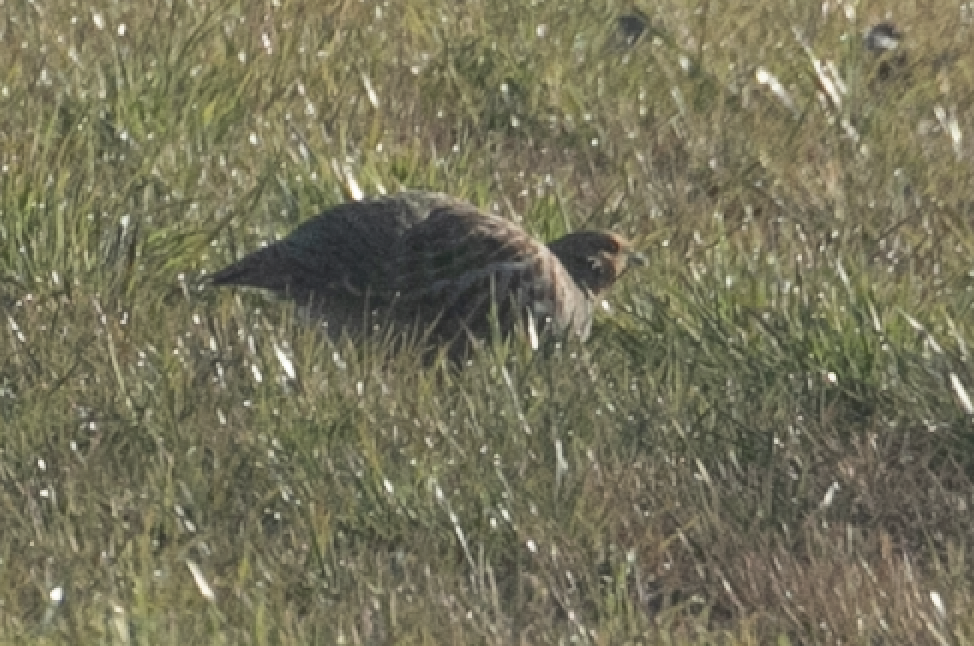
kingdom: Animalia
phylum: Chordata
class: Aves
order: Galliformes
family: Phasianidae
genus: Perdix
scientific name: Perdix perdix
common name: Grey partridge
